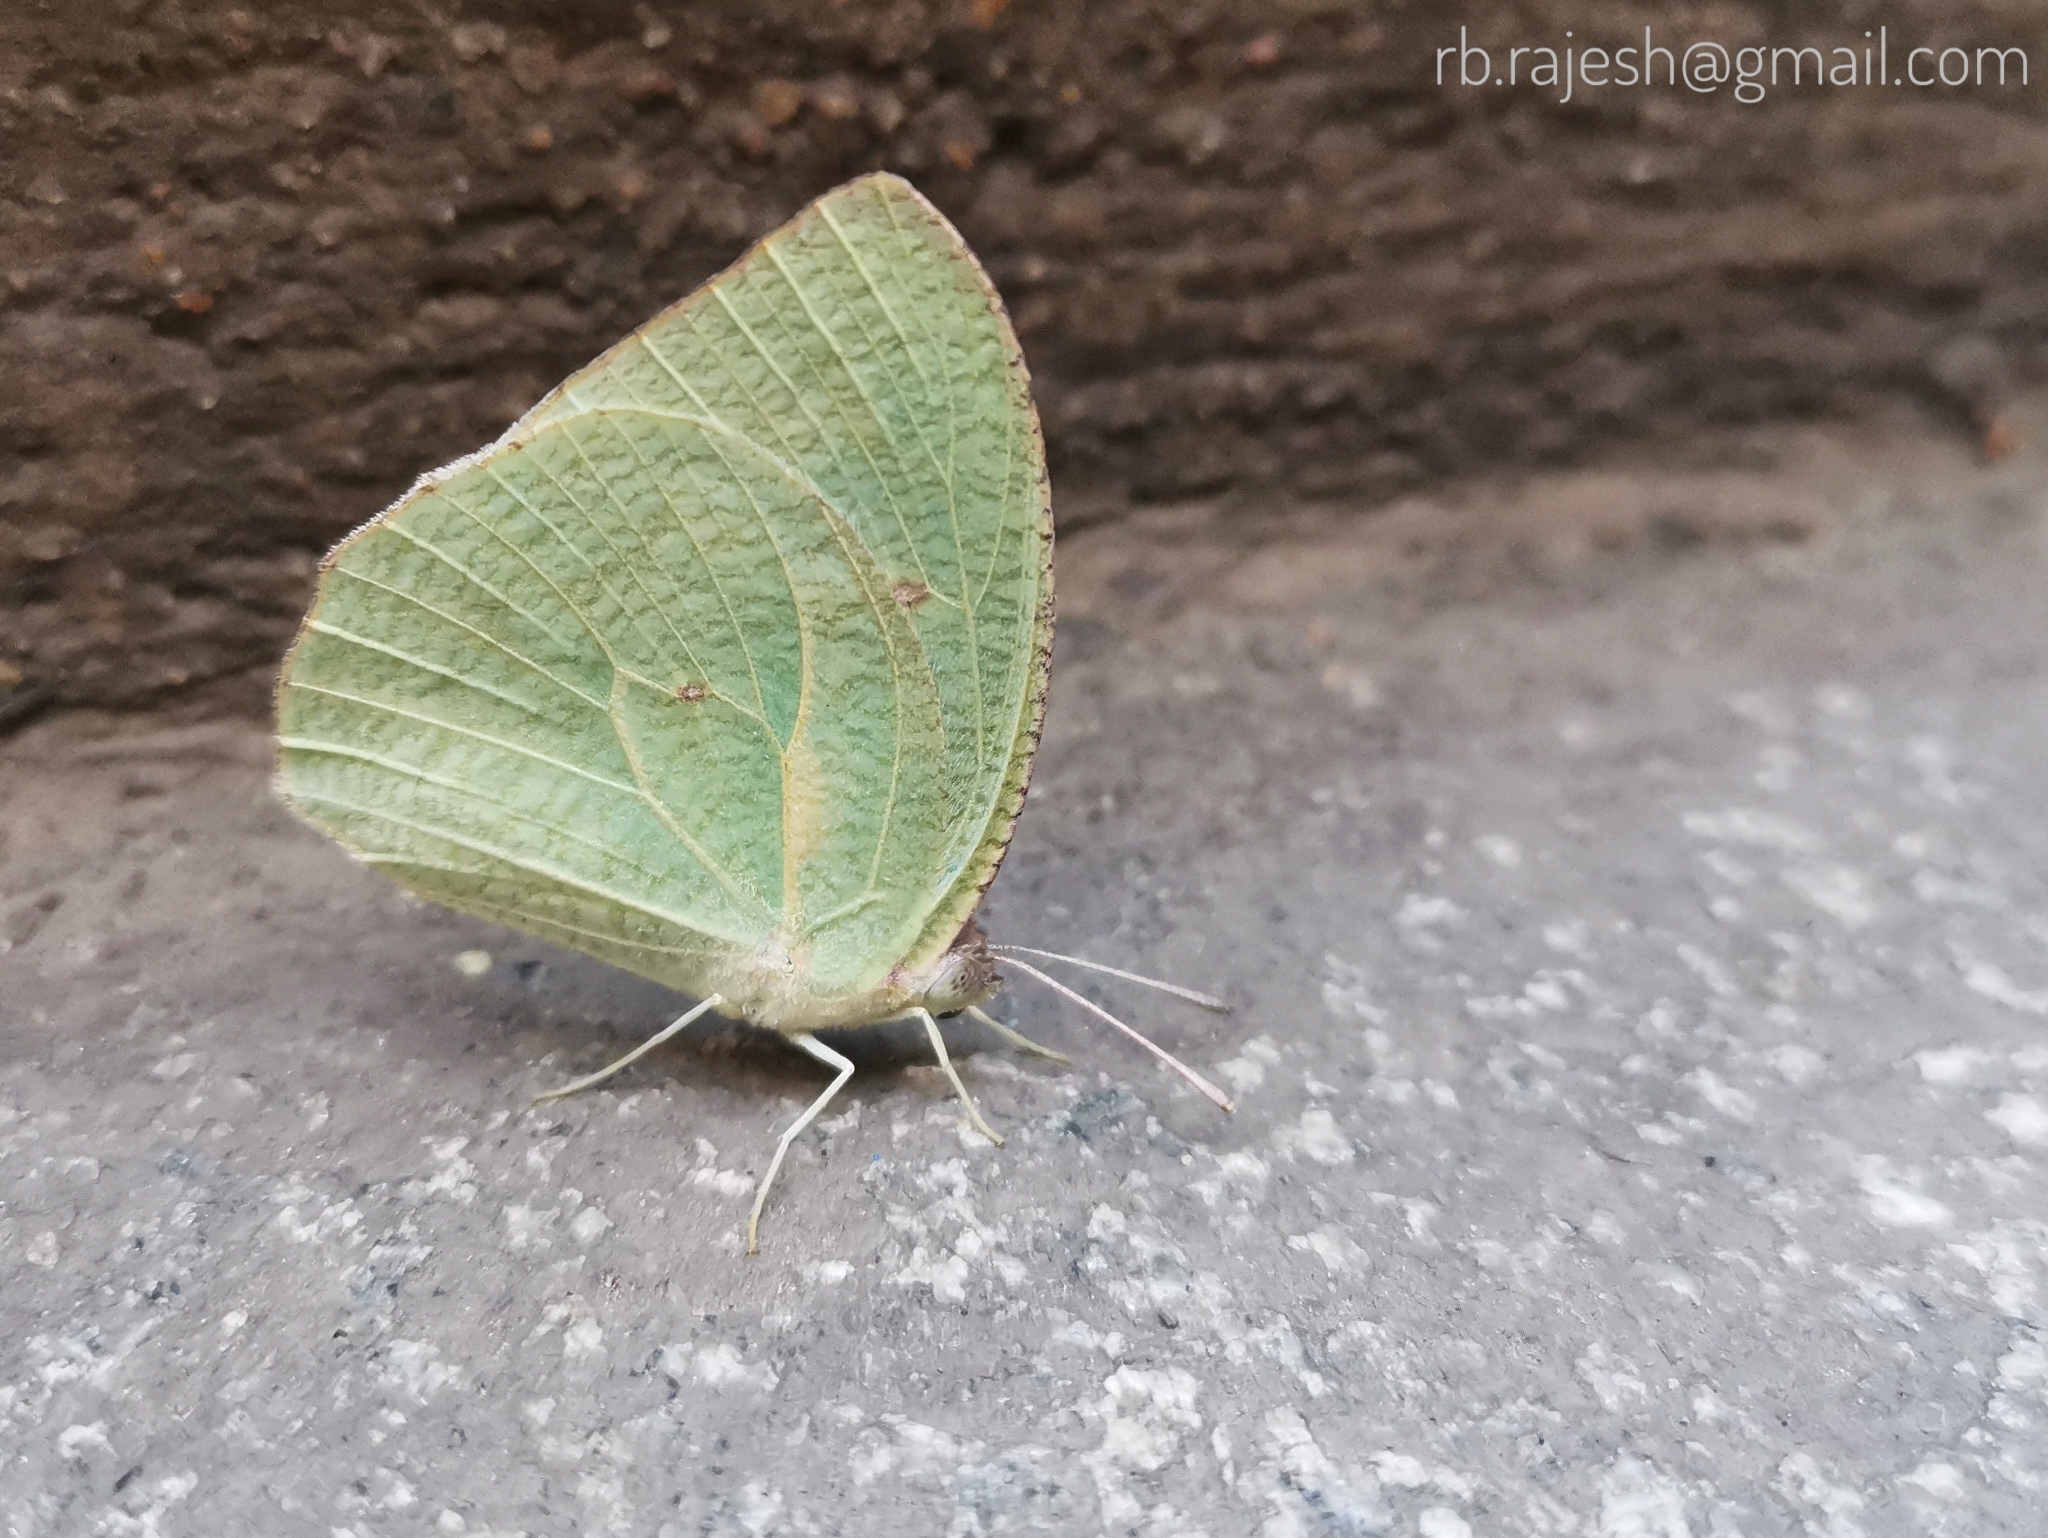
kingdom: Animalia
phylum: Arthropoda
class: Insecta
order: Lepidoptera
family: Pieridae
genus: Catopsilia
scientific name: Catopsilia pyranthe
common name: Mottled emigrant
